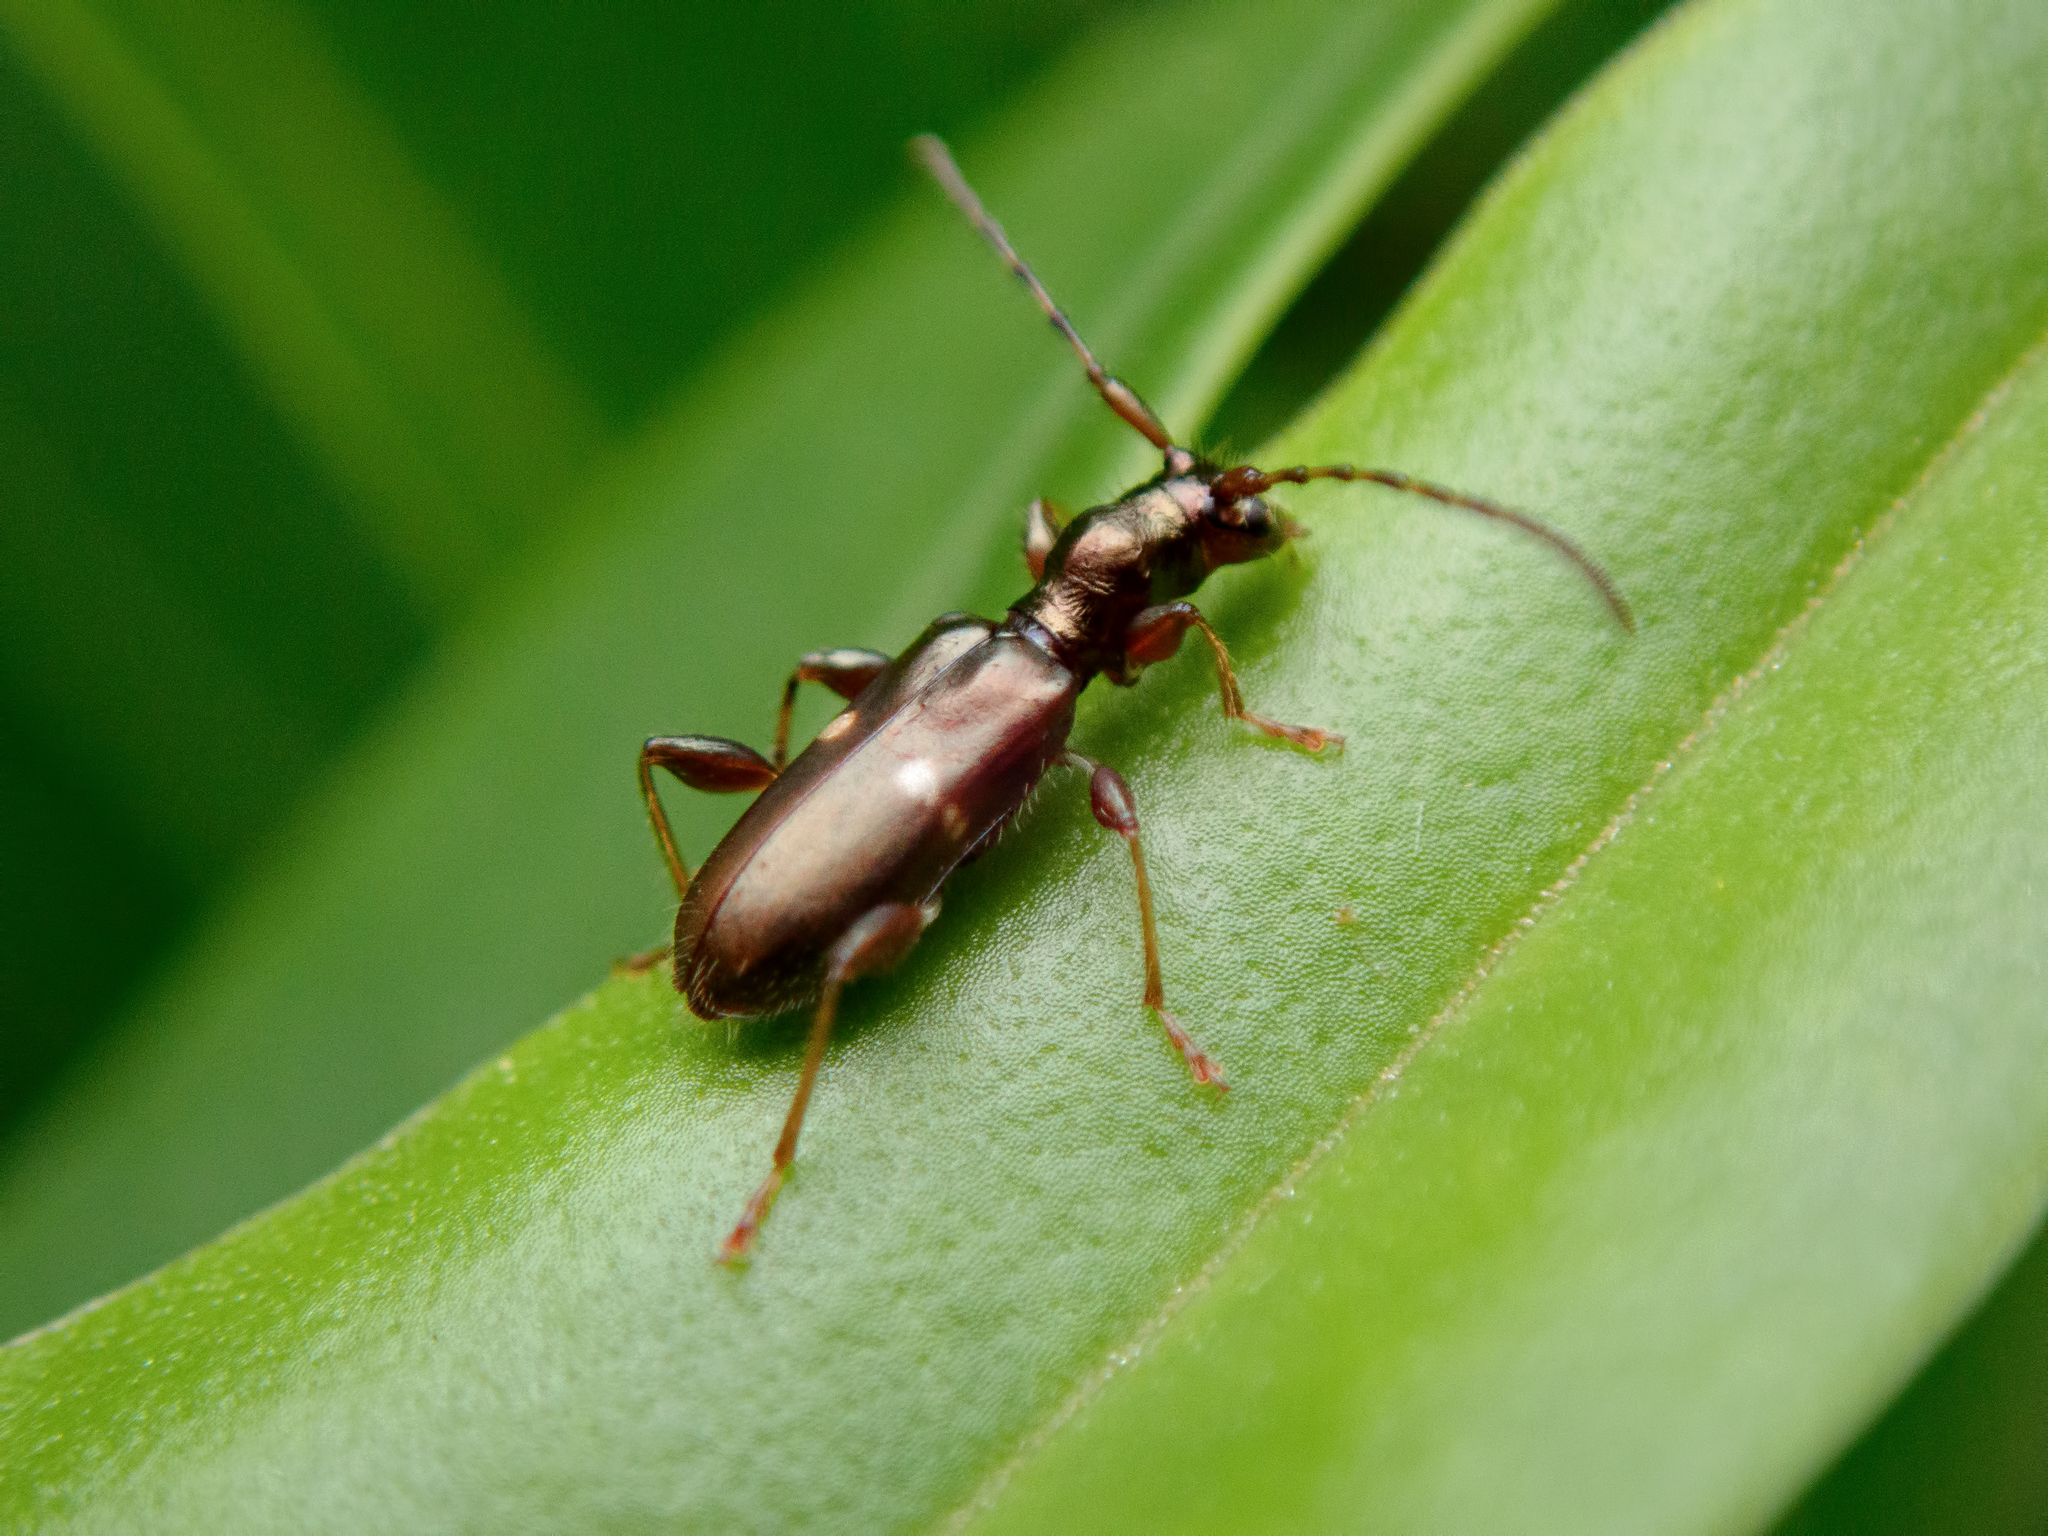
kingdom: Animalia
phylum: Arthropoda
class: Insecta
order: Coleoptera
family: Cerambycidae
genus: Zorion
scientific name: Zorion opacum
